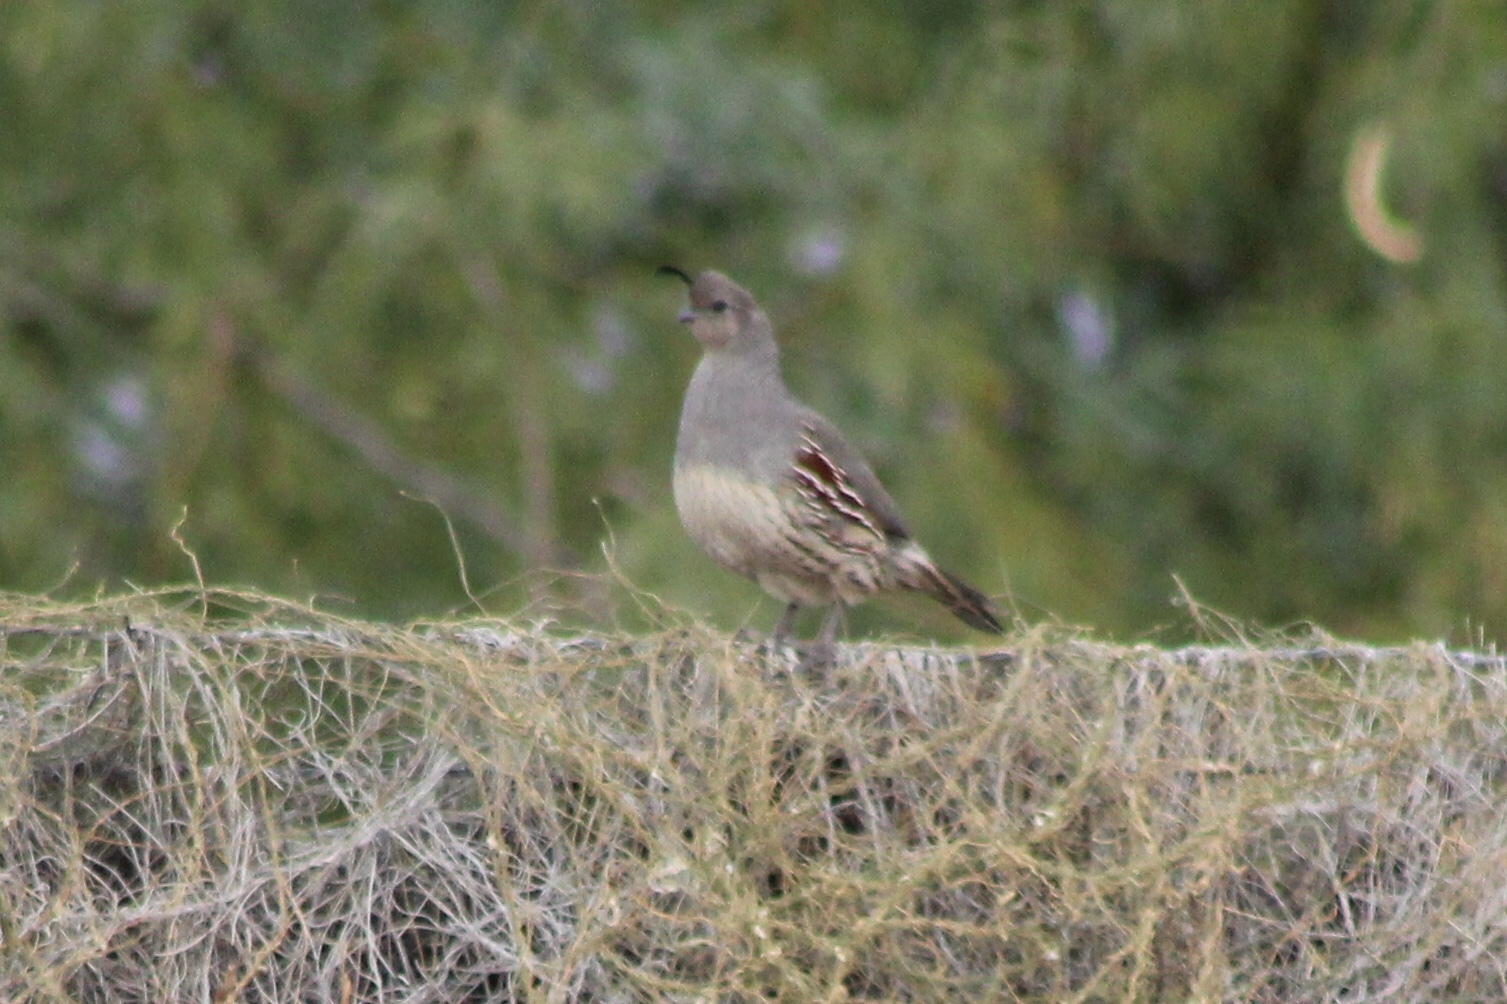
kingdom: Animalia
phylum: Chordata
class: Aves
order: Galliformes
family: Odontophoridae
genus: Callipepla
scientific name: Callipepla gambelii
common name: Gambel's quail
